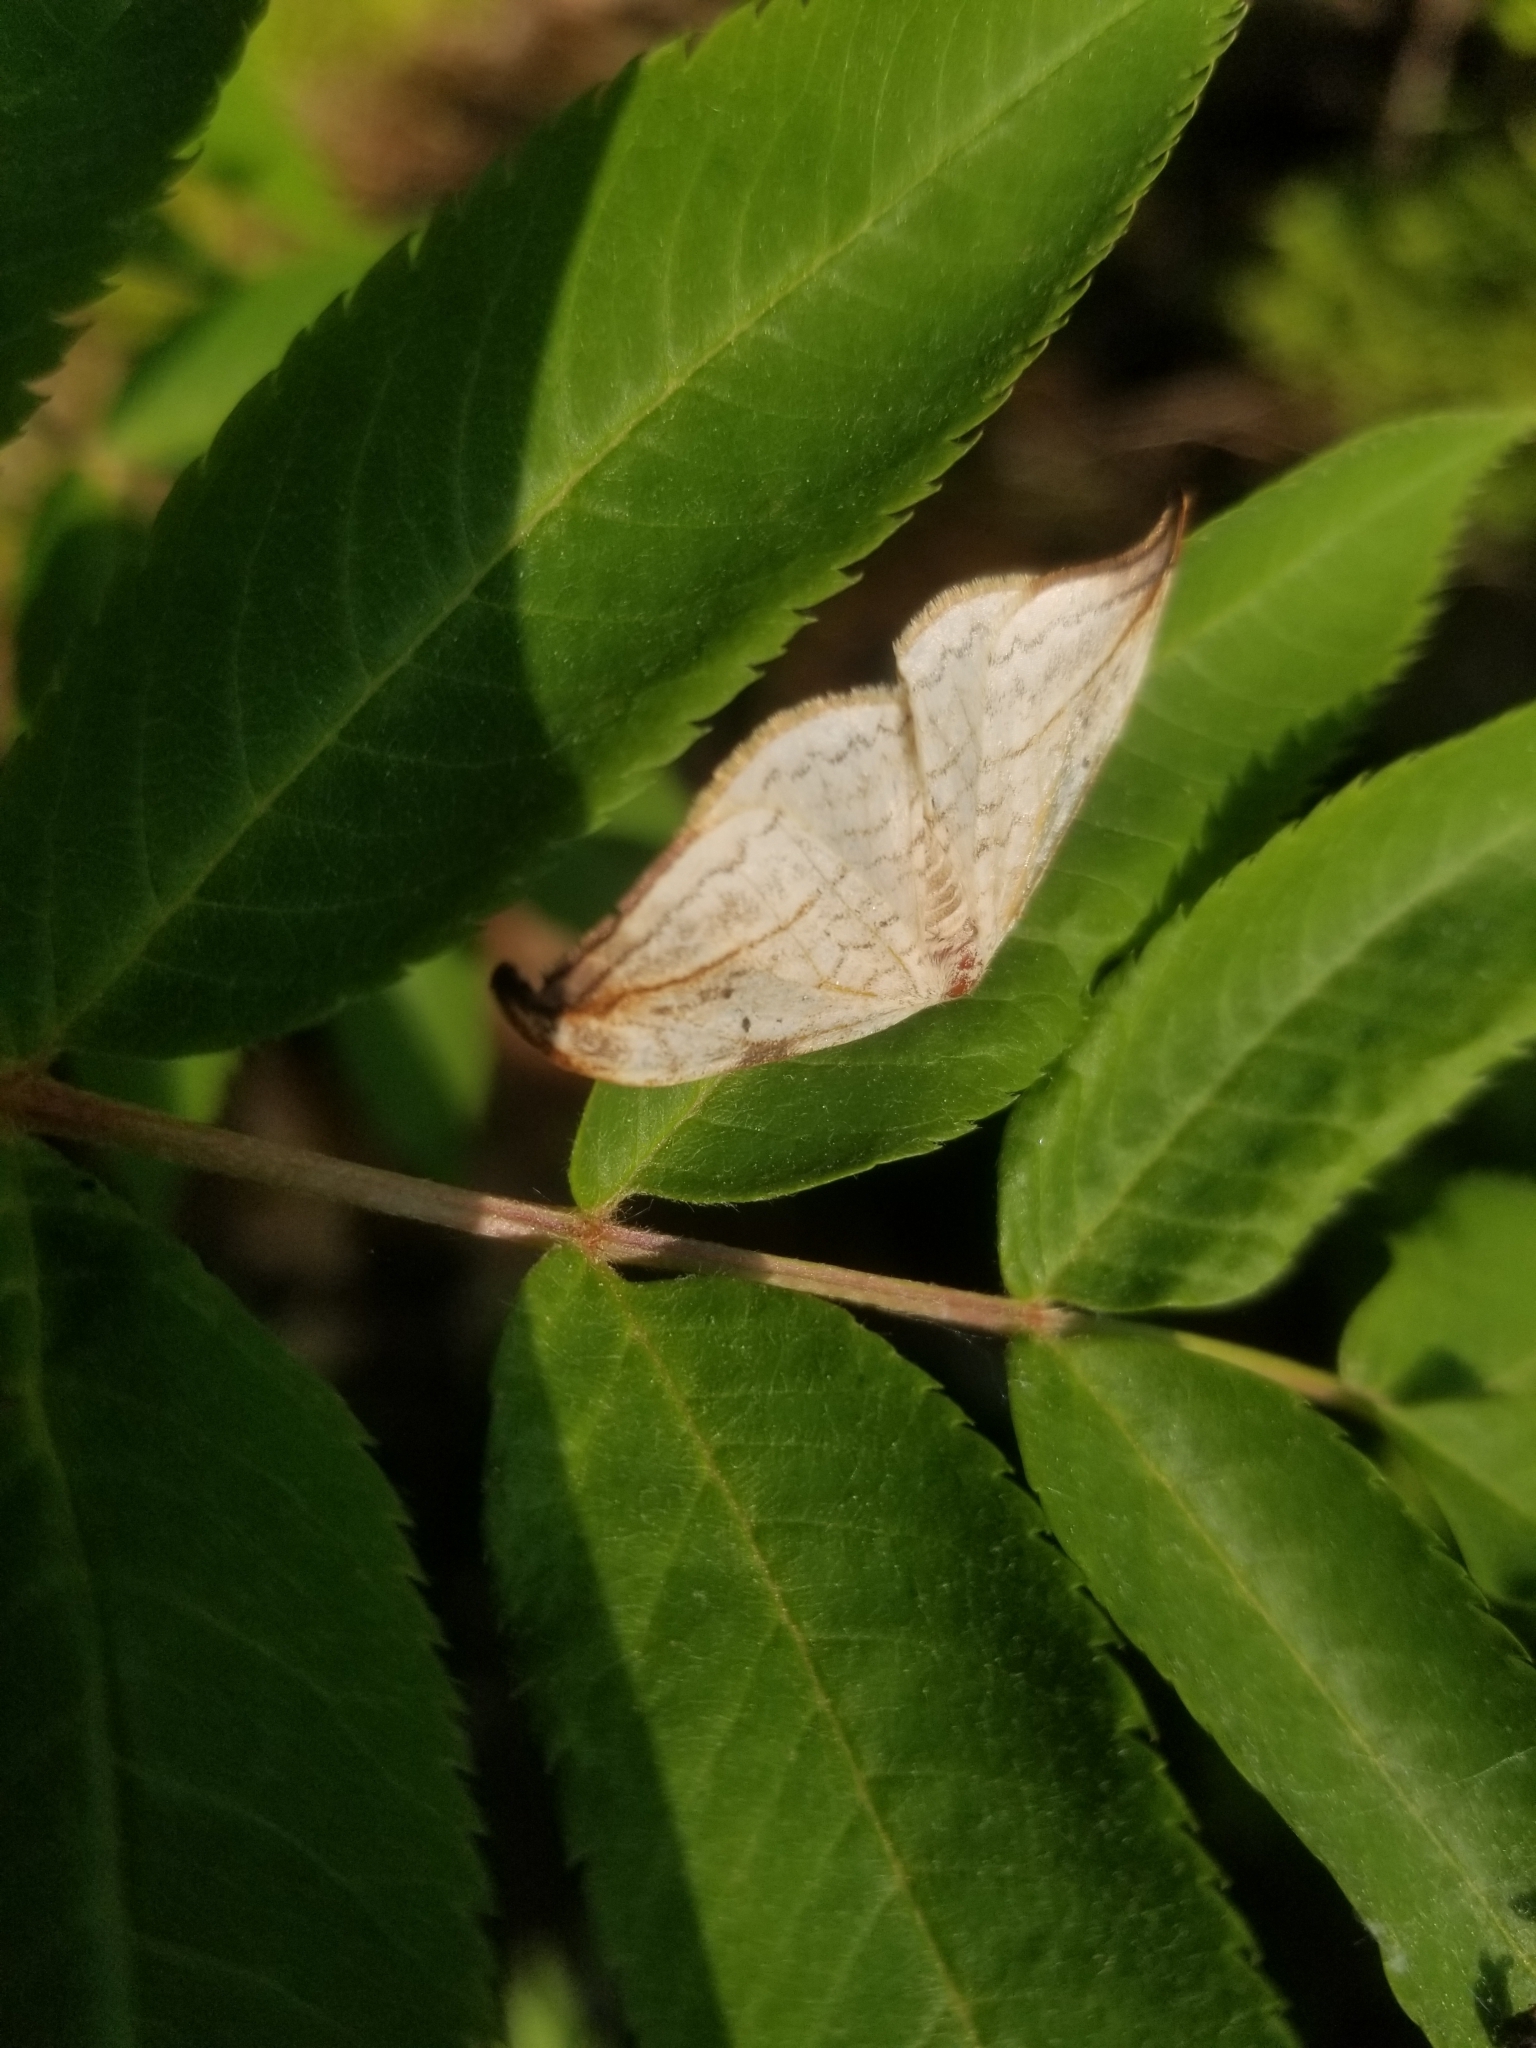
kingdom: Animalia
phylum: Arthropoda
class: Insecta
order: Lepidoptera
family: Drepanidae
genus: Drepana
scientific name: Drepana arcuata
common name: Arched hooktip moth
